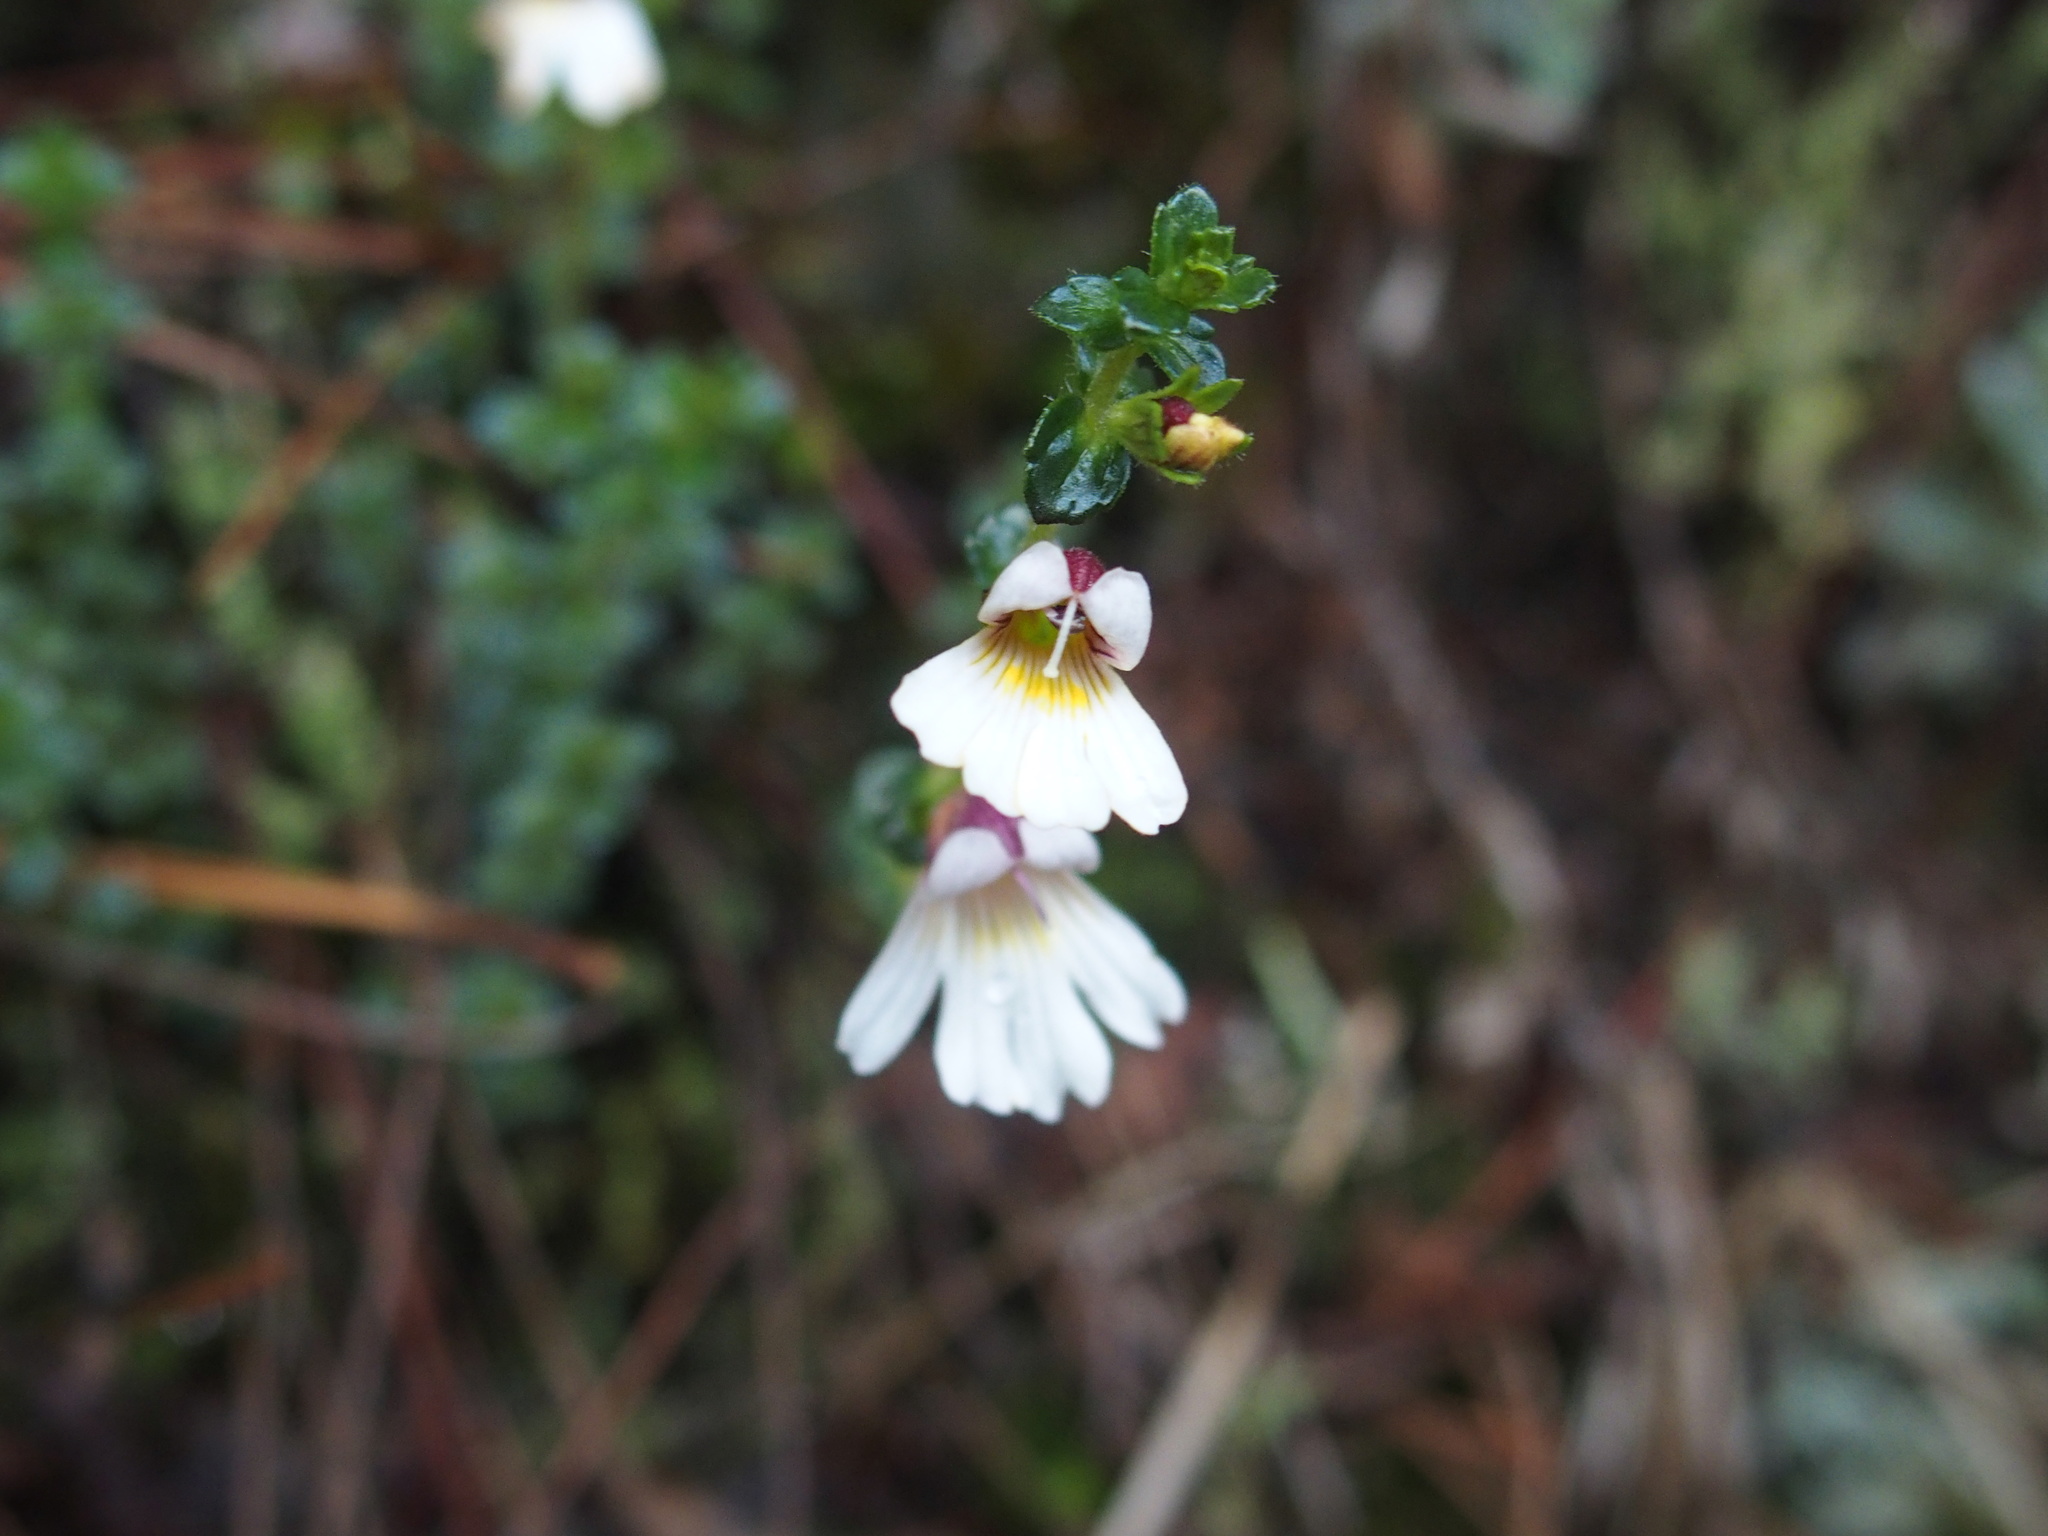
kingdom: Plantae
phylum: Tracheophyta
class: Magnoliopsida
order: Lamiales
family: Orobanchaceae
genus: Euphrasia
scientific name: Euphrasia transmorrisonensis
